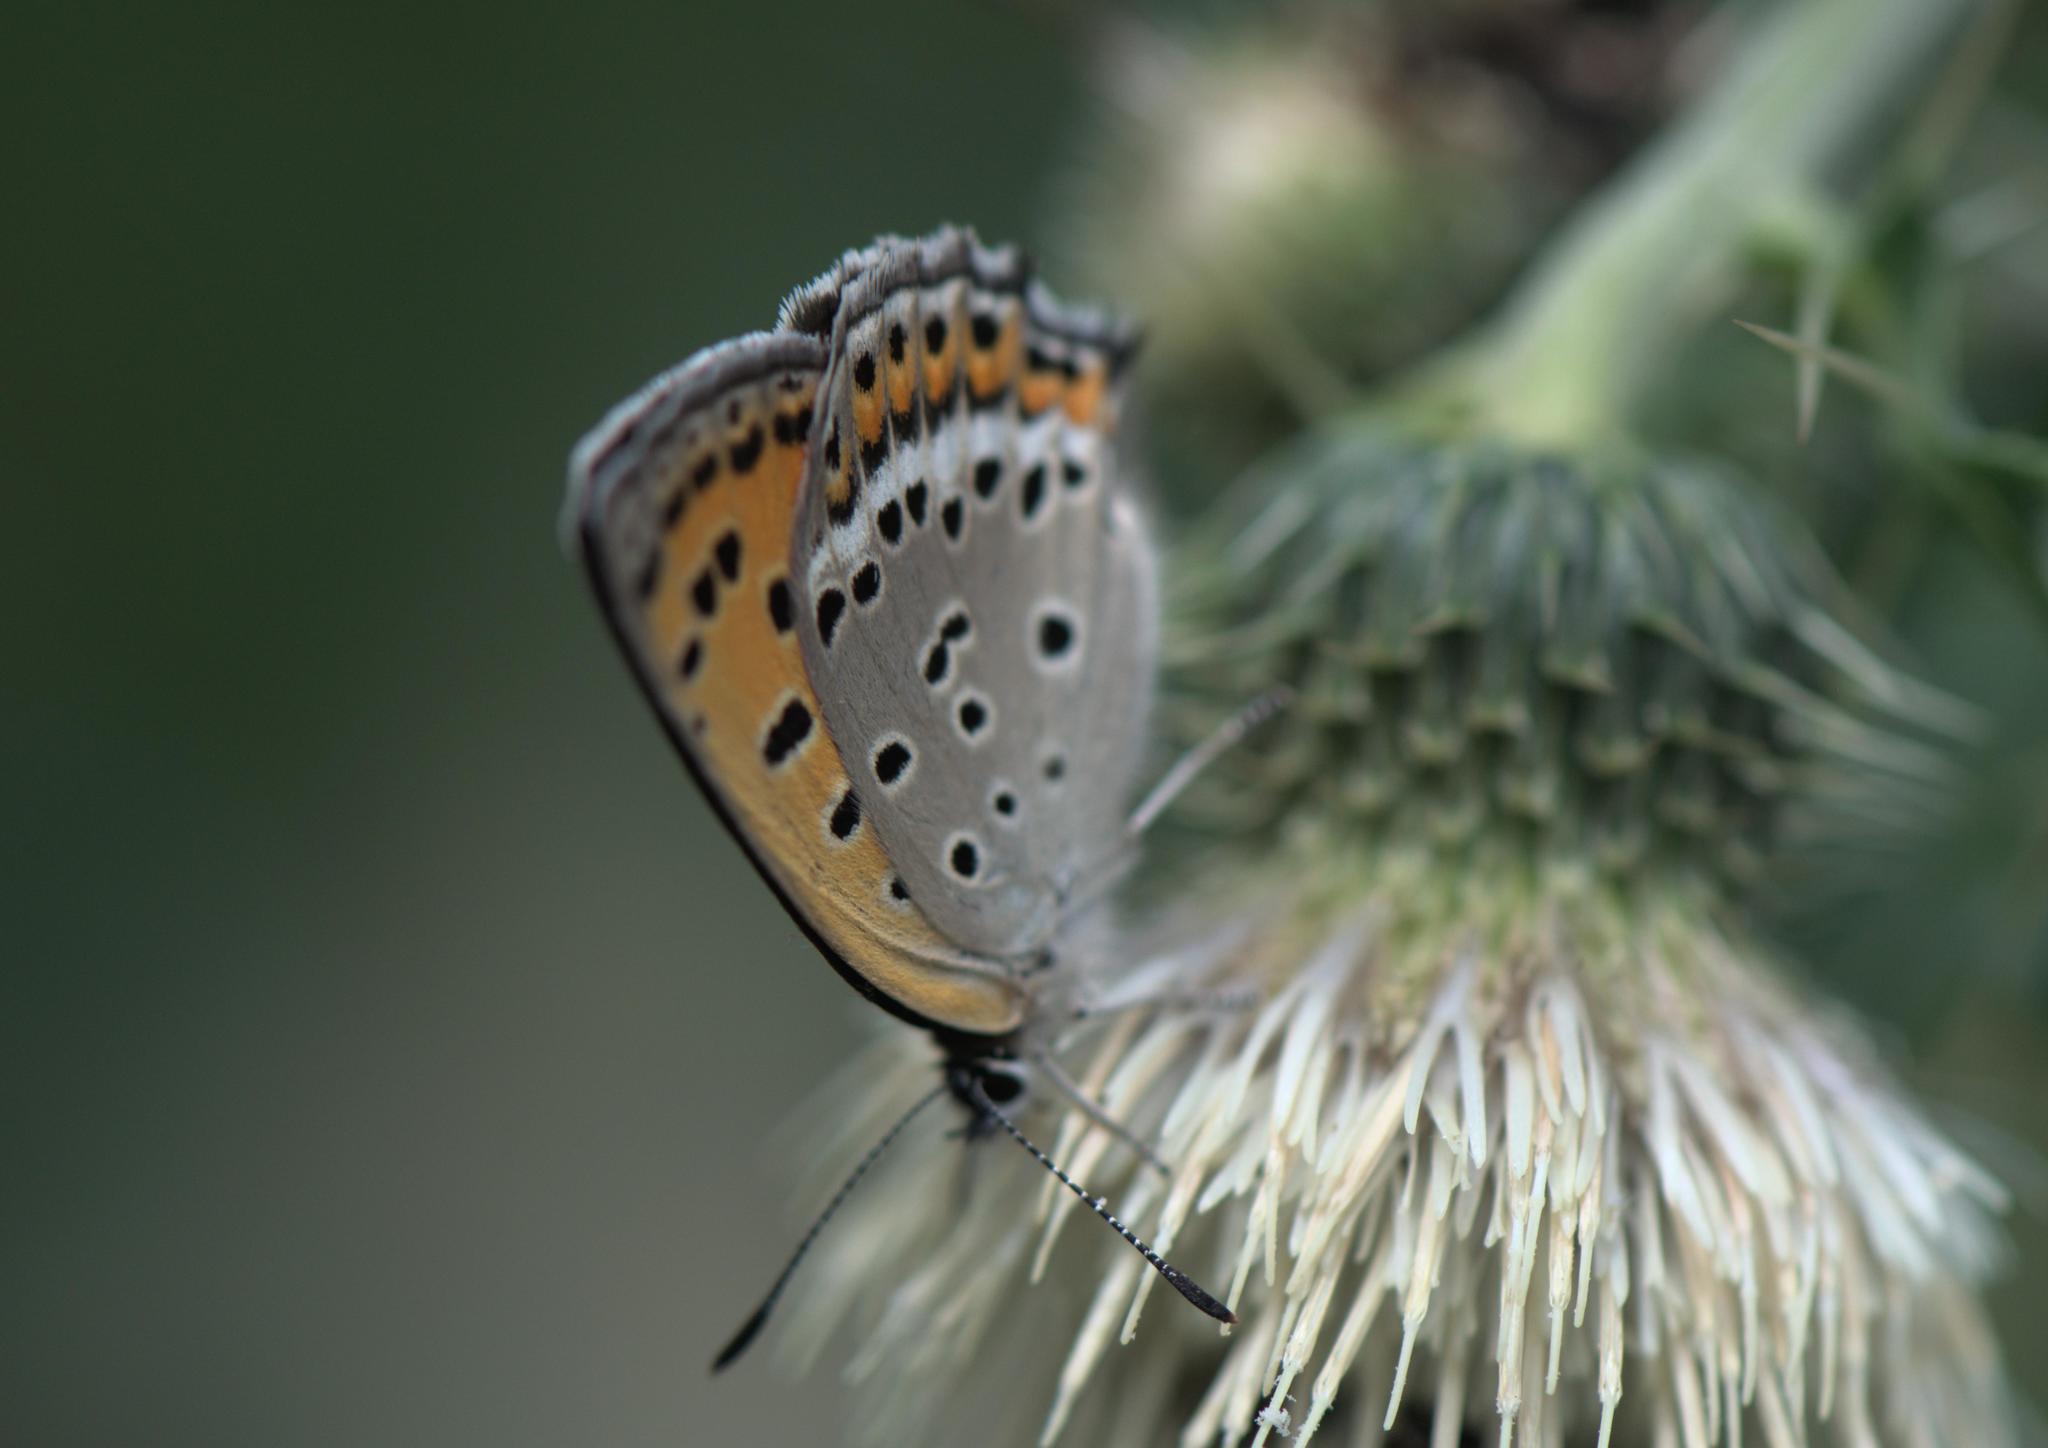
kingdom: Animalia
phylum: Arthropoda
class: Insecta
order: Lepidoptera
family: Lycaenidae
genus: Lycaena
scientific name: Lycaena panava
